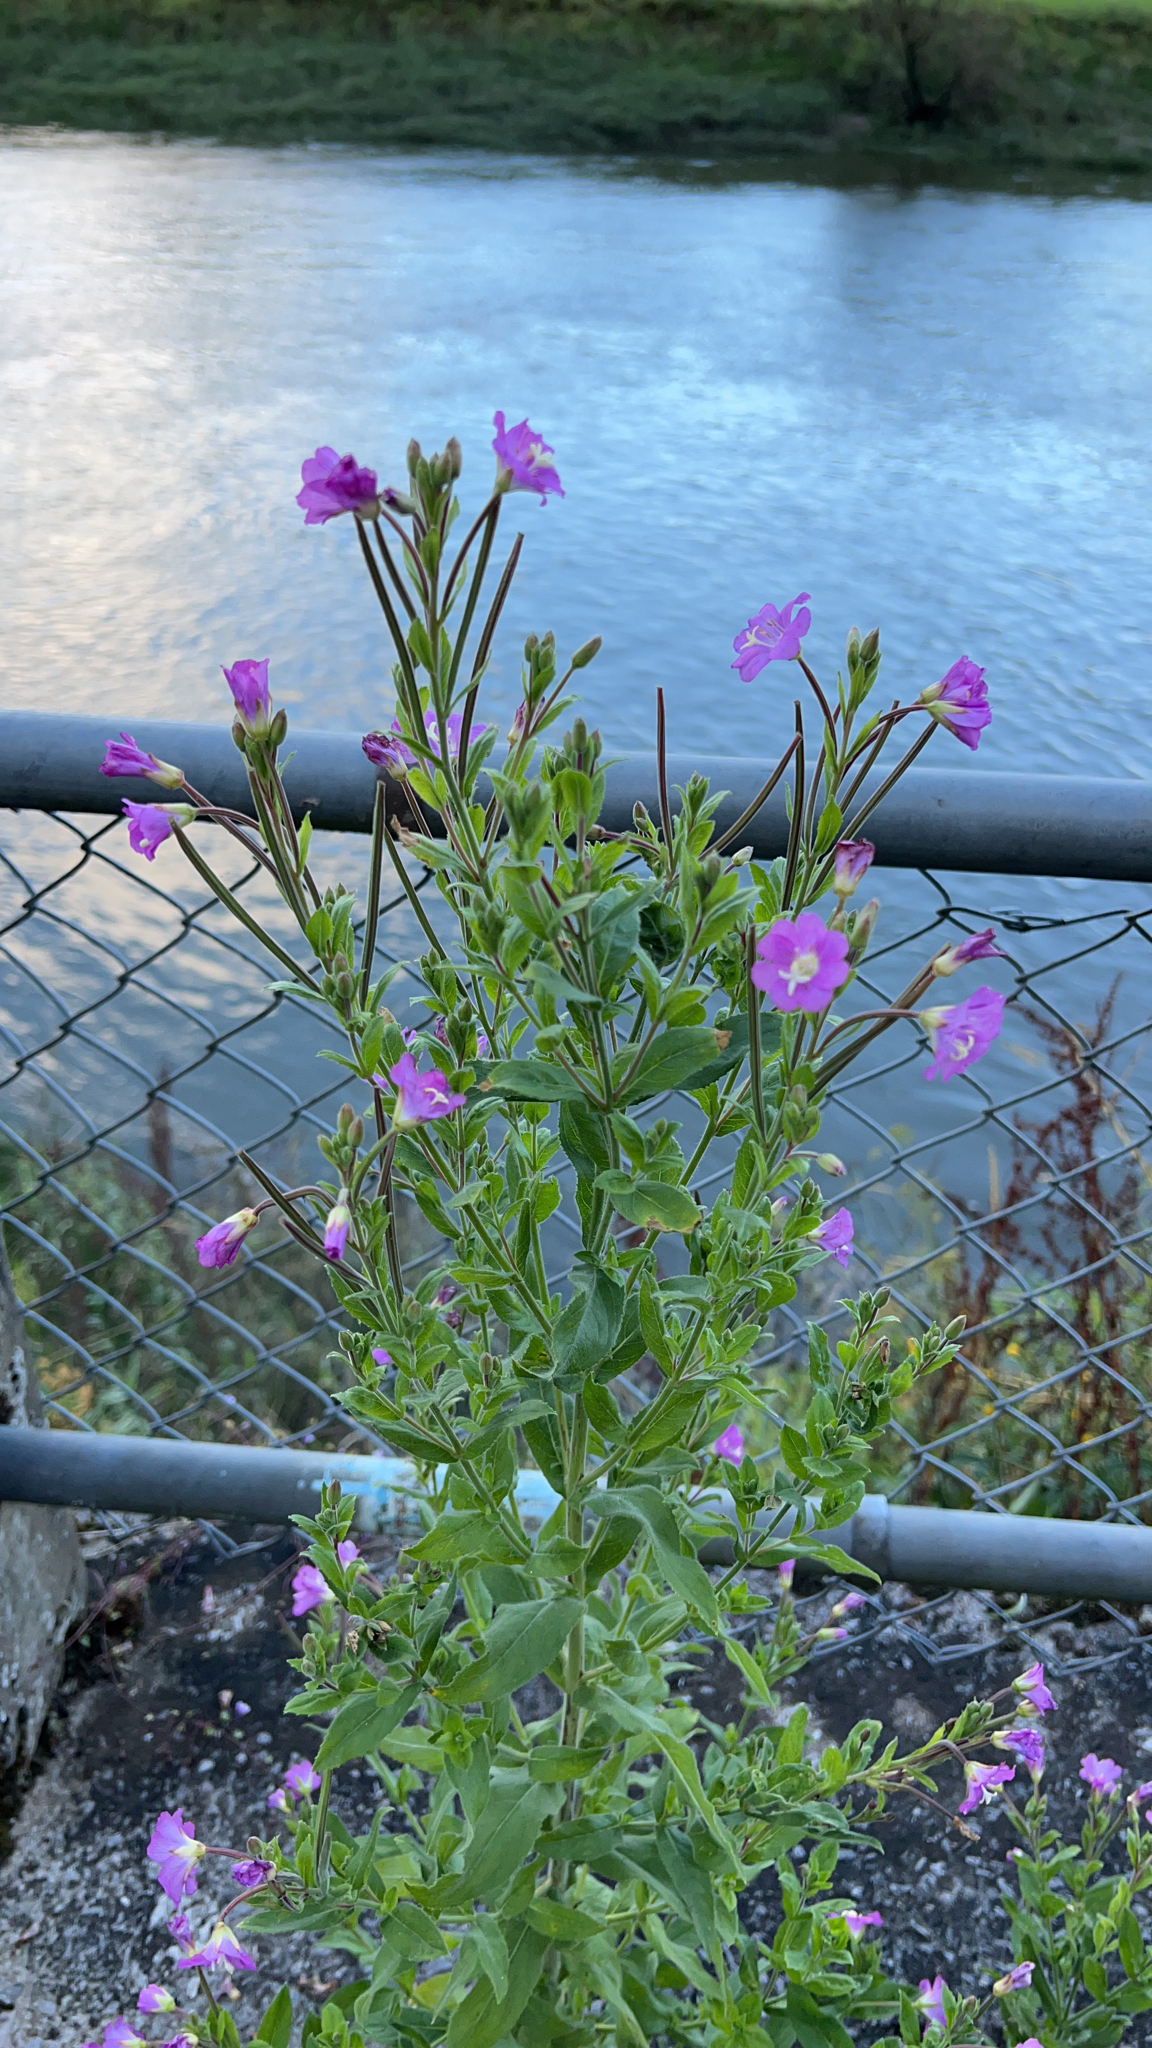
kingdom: Plantae
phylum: Tracheophyta
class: Magnoliopsida
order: Myrtales
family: Onagraceae
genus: Epilobium
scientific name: Epilobium hirsutum
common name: Great willowherb
